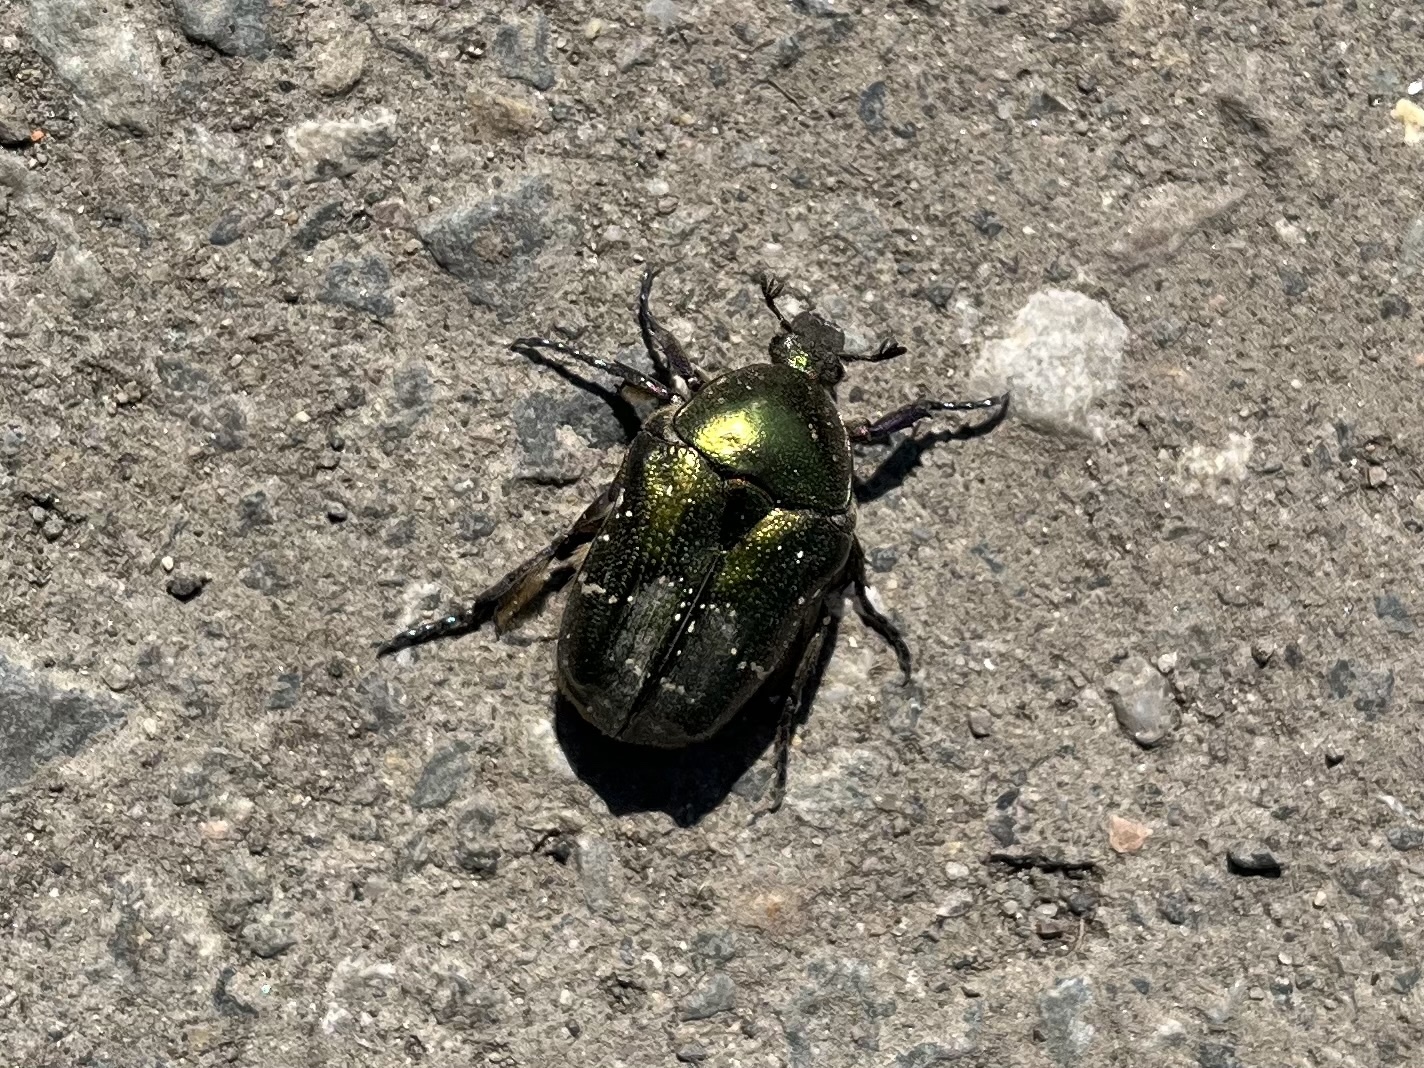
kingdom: Animalia
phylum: Arthropoda
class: Insecta
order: Coleoptera
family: Scarabaeidae
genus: Protaetia
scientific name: Protaetia cuprea
